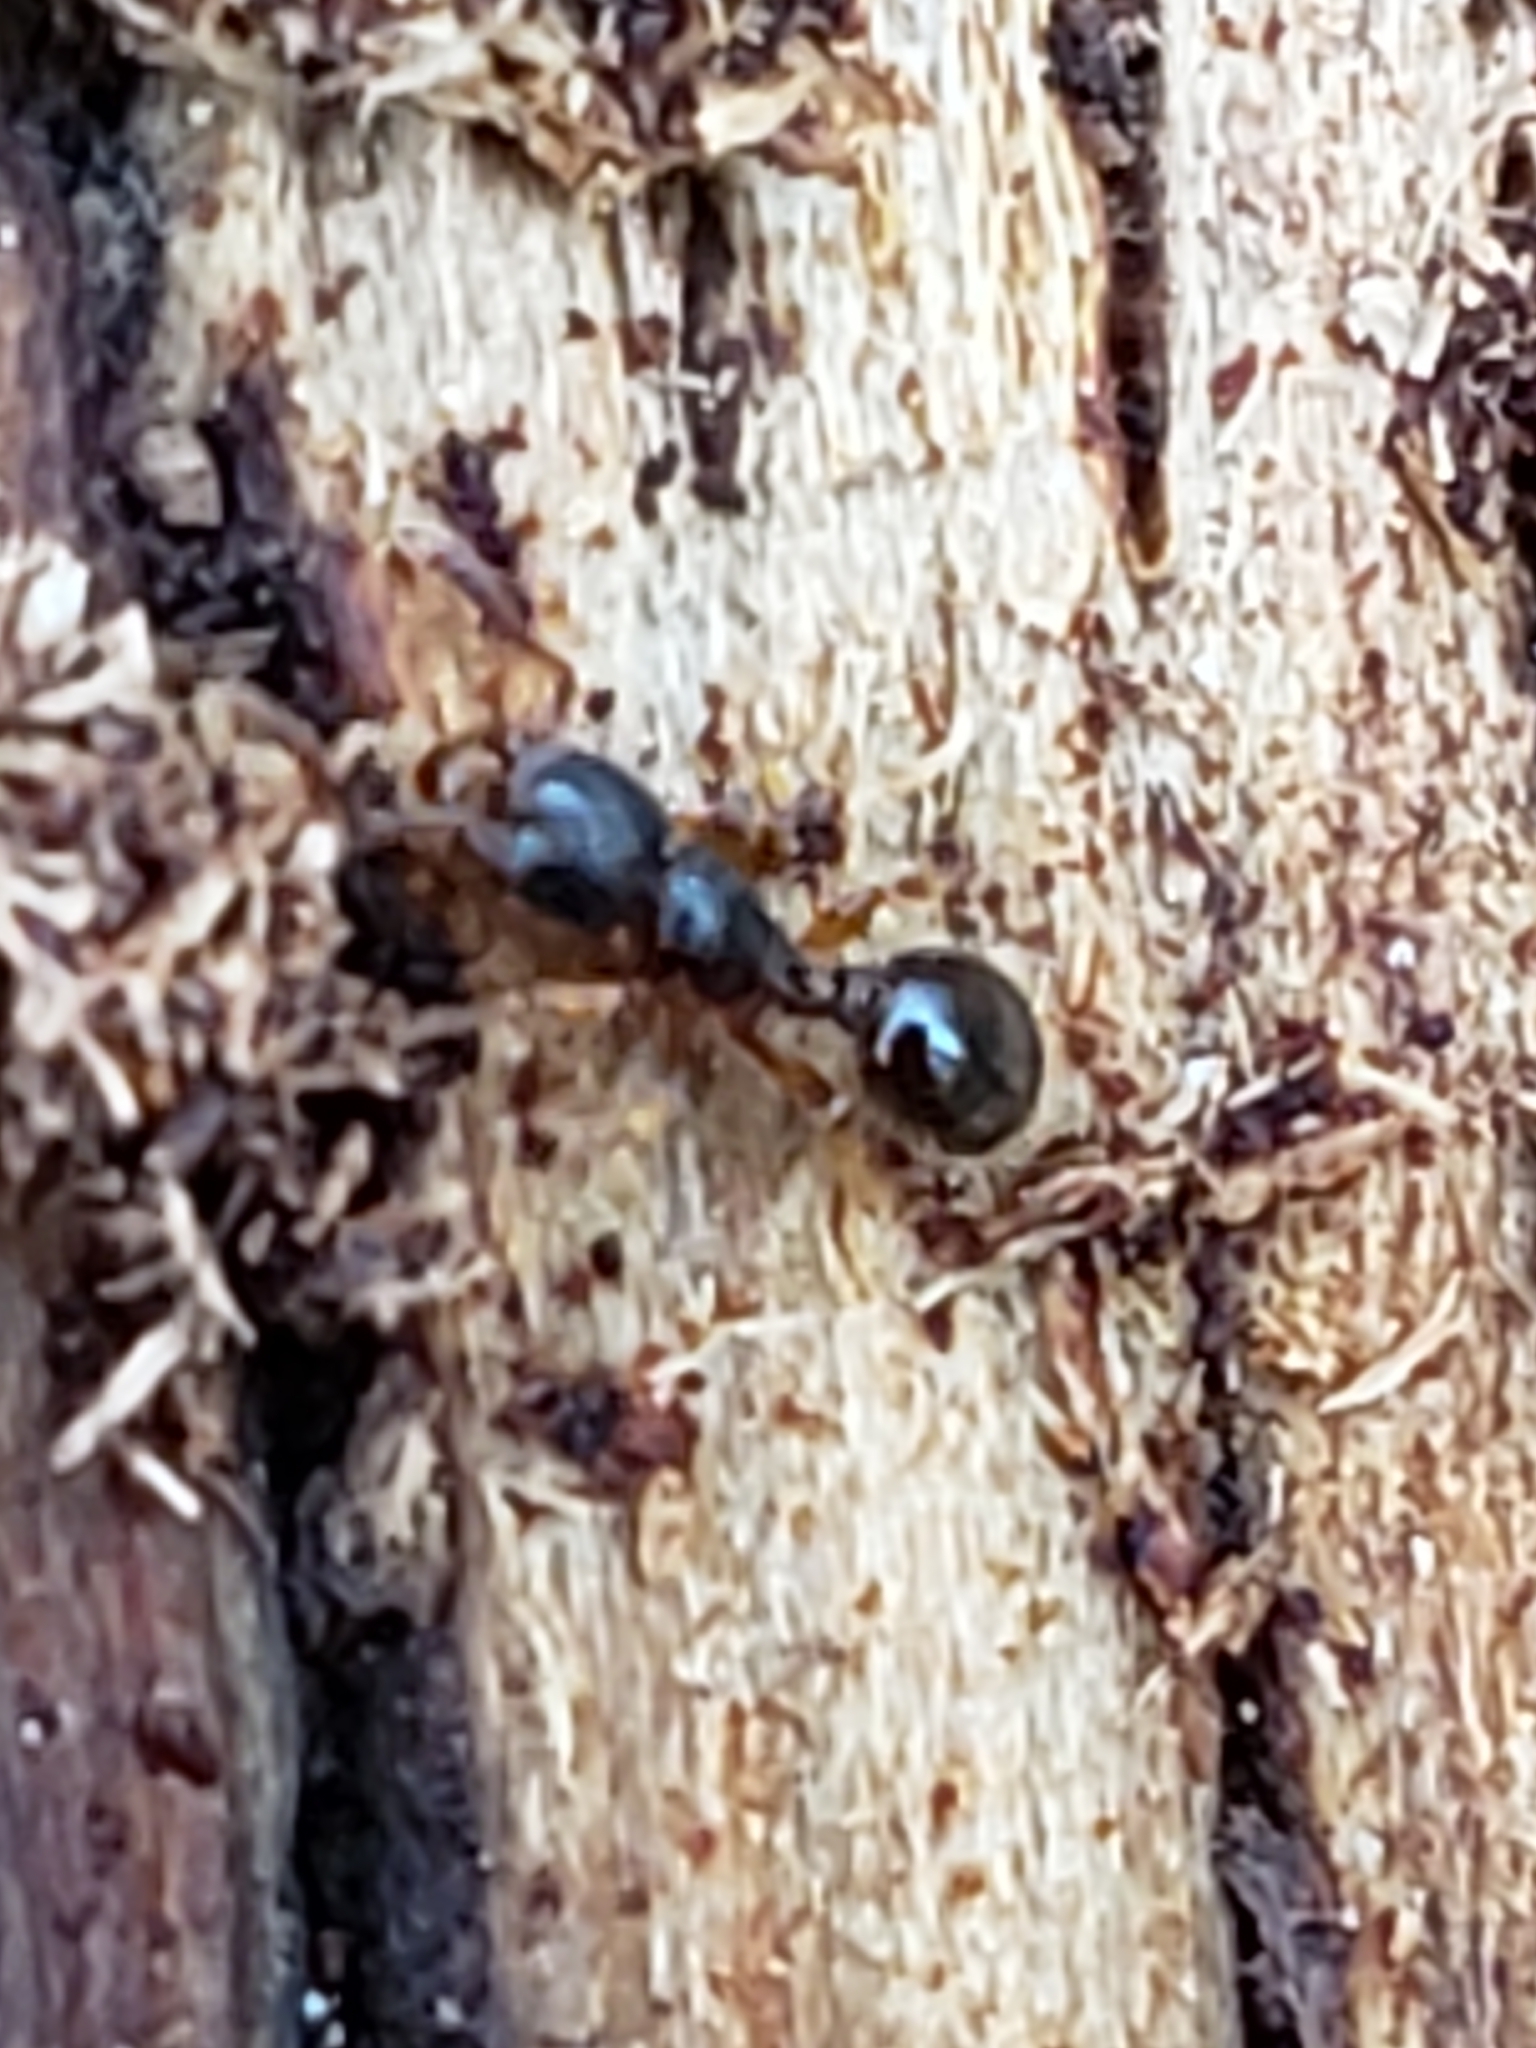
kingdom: Animalia
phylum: Arthropoda
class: Insecta
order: Hymenoptera
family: Formicidae
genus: Myrmecina
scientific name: Myrmecina americana
